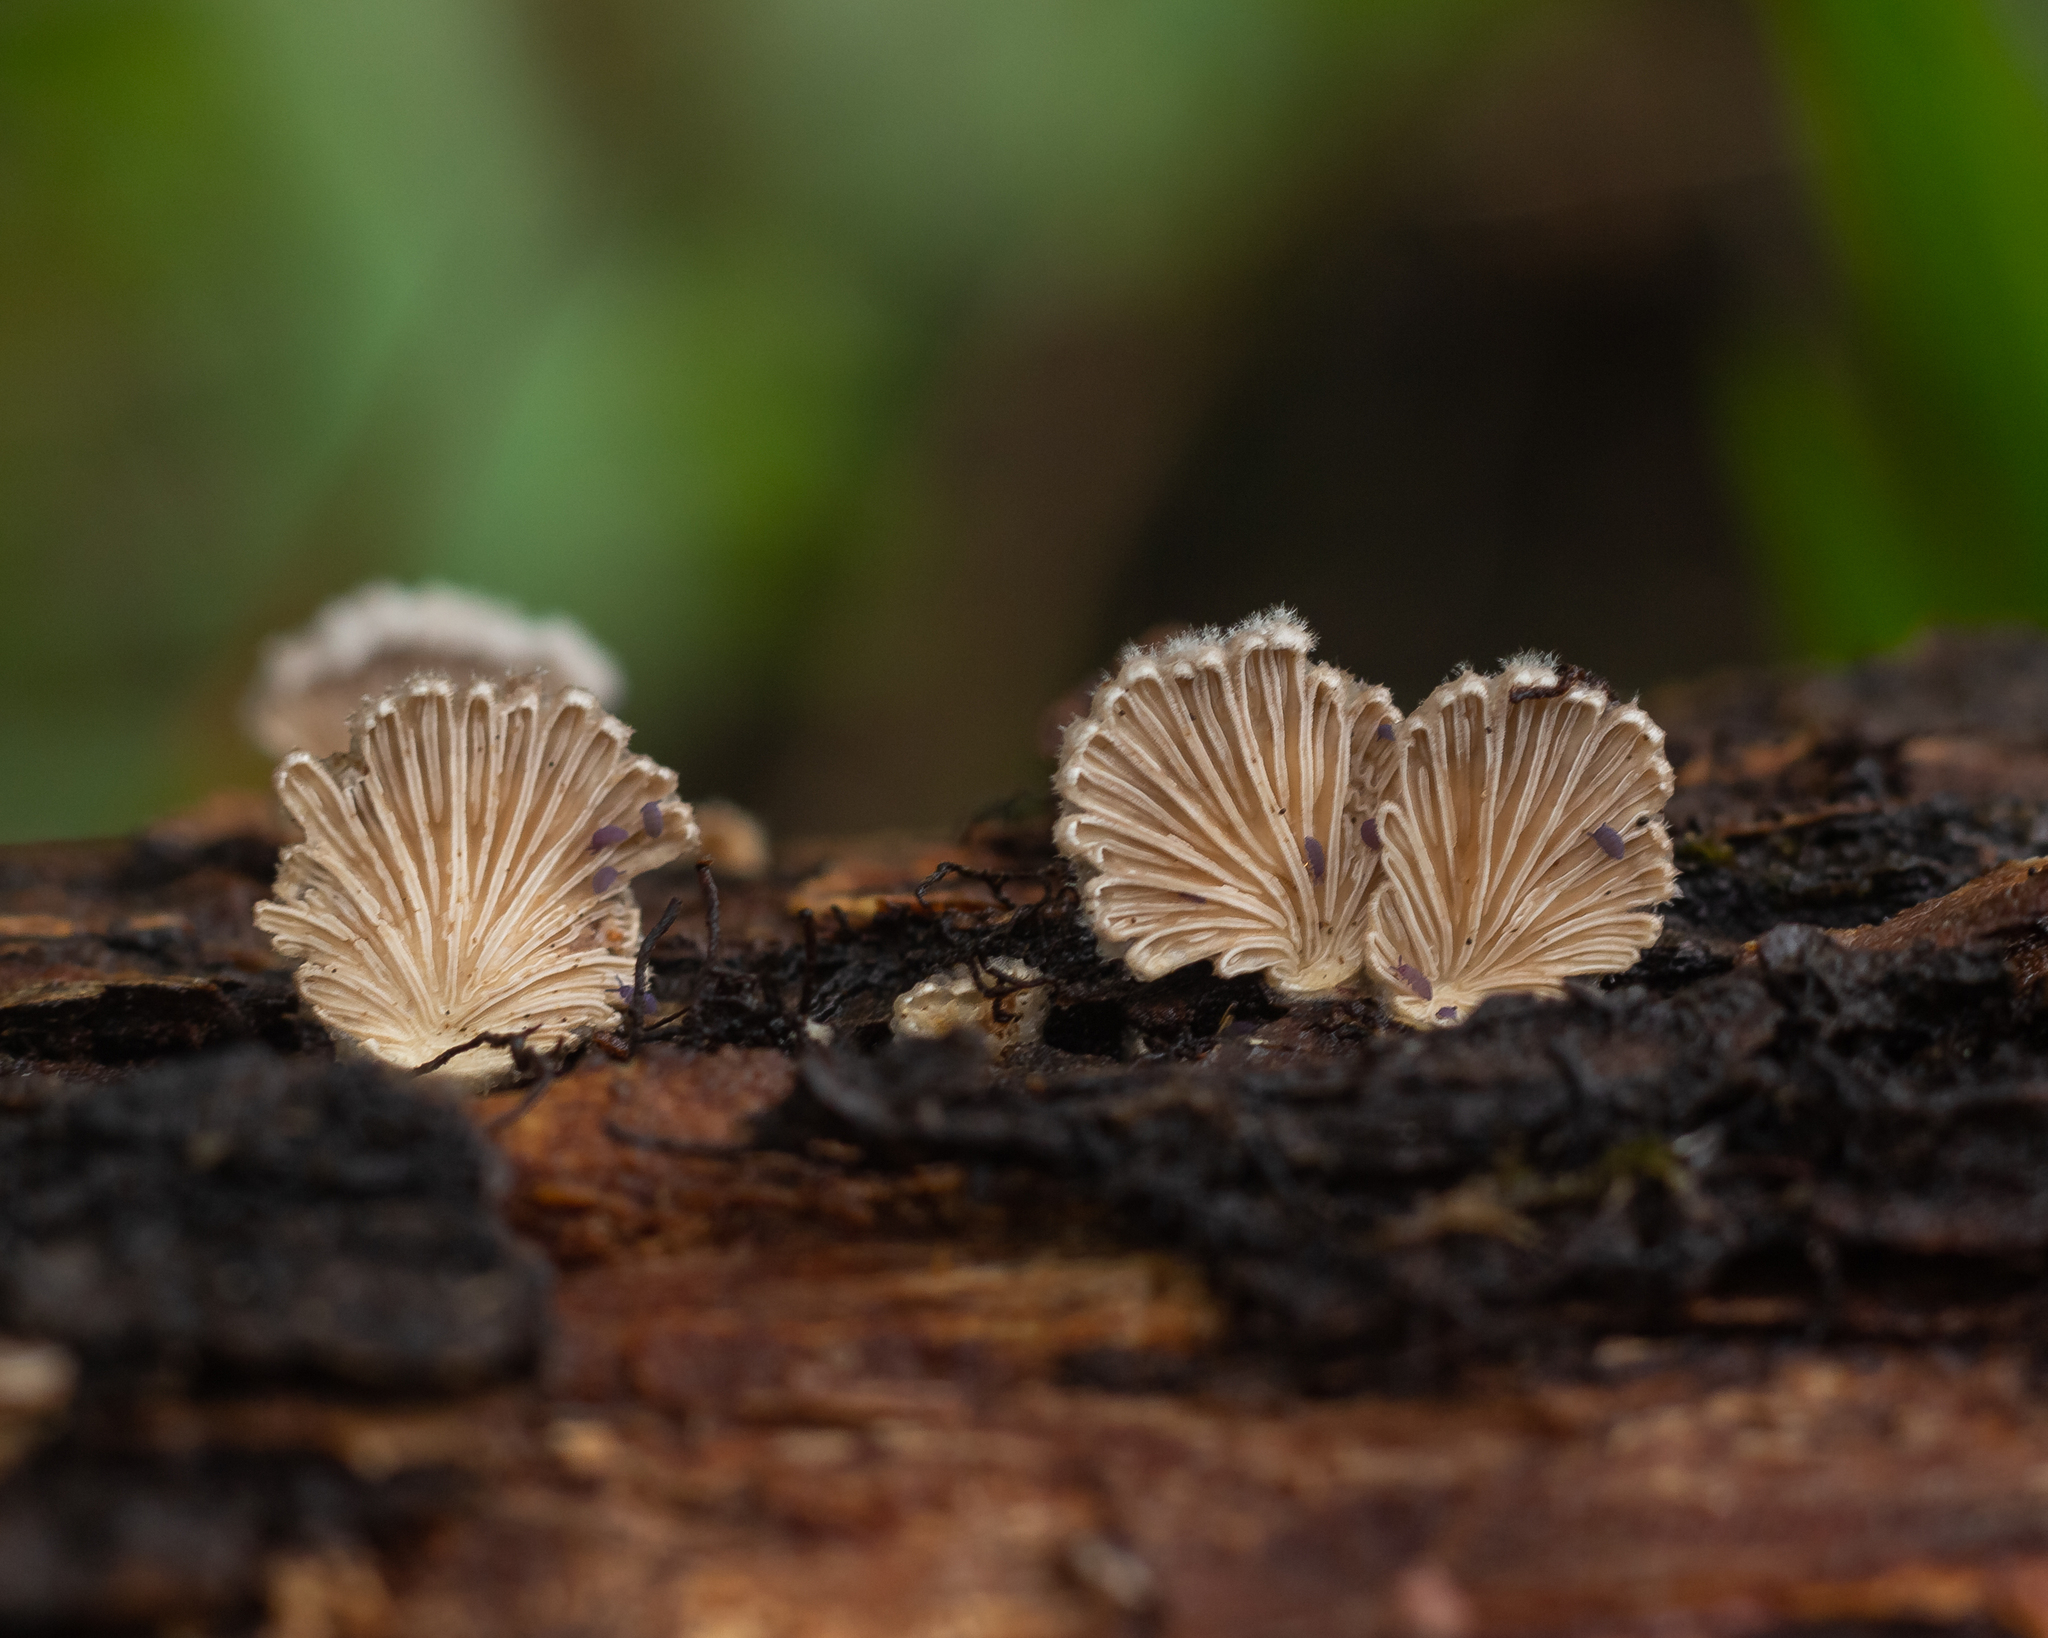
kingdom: Fungi
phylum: Basidiomycota
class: Agaricomycetes
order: Agaricales
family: Schizophyllaceae
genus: Schizophyllum
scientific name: Schizophyllum commune
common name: Common porecrust
